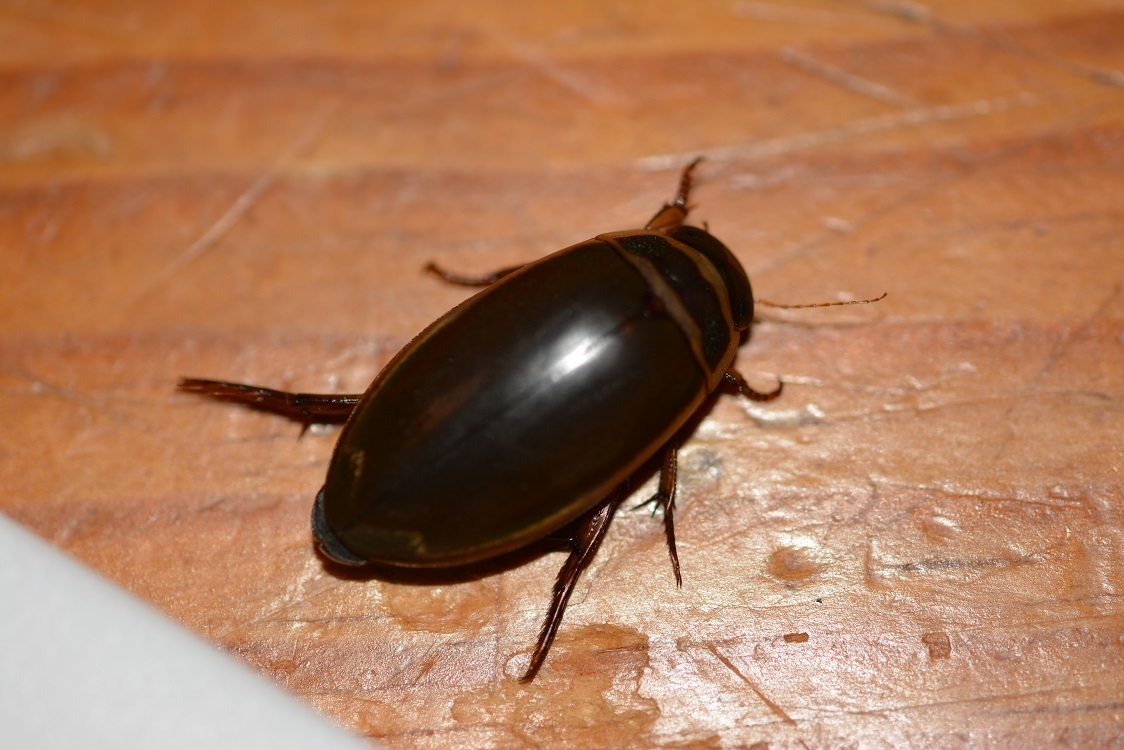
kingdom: Animalia
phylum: Arthropoda
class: Insecta
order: Coleoptera
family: Dytiscidae
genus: Dytiscus
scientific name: Dytiscus habilis
